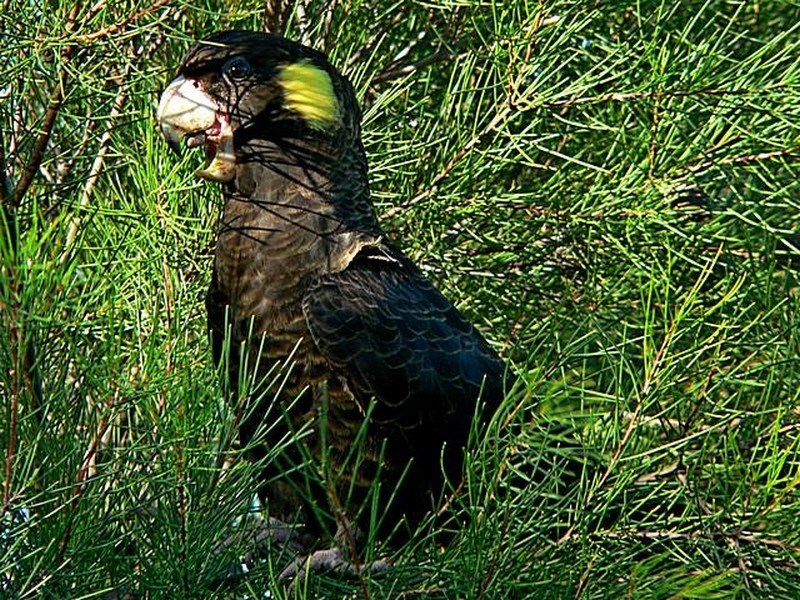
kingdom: Animalia
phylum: Chordata
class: Aves
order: Psittaciformes
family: Cacatuidae
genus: Zanda
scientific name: Zanda funerea
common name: Yellow-tailed black-cockatoo
